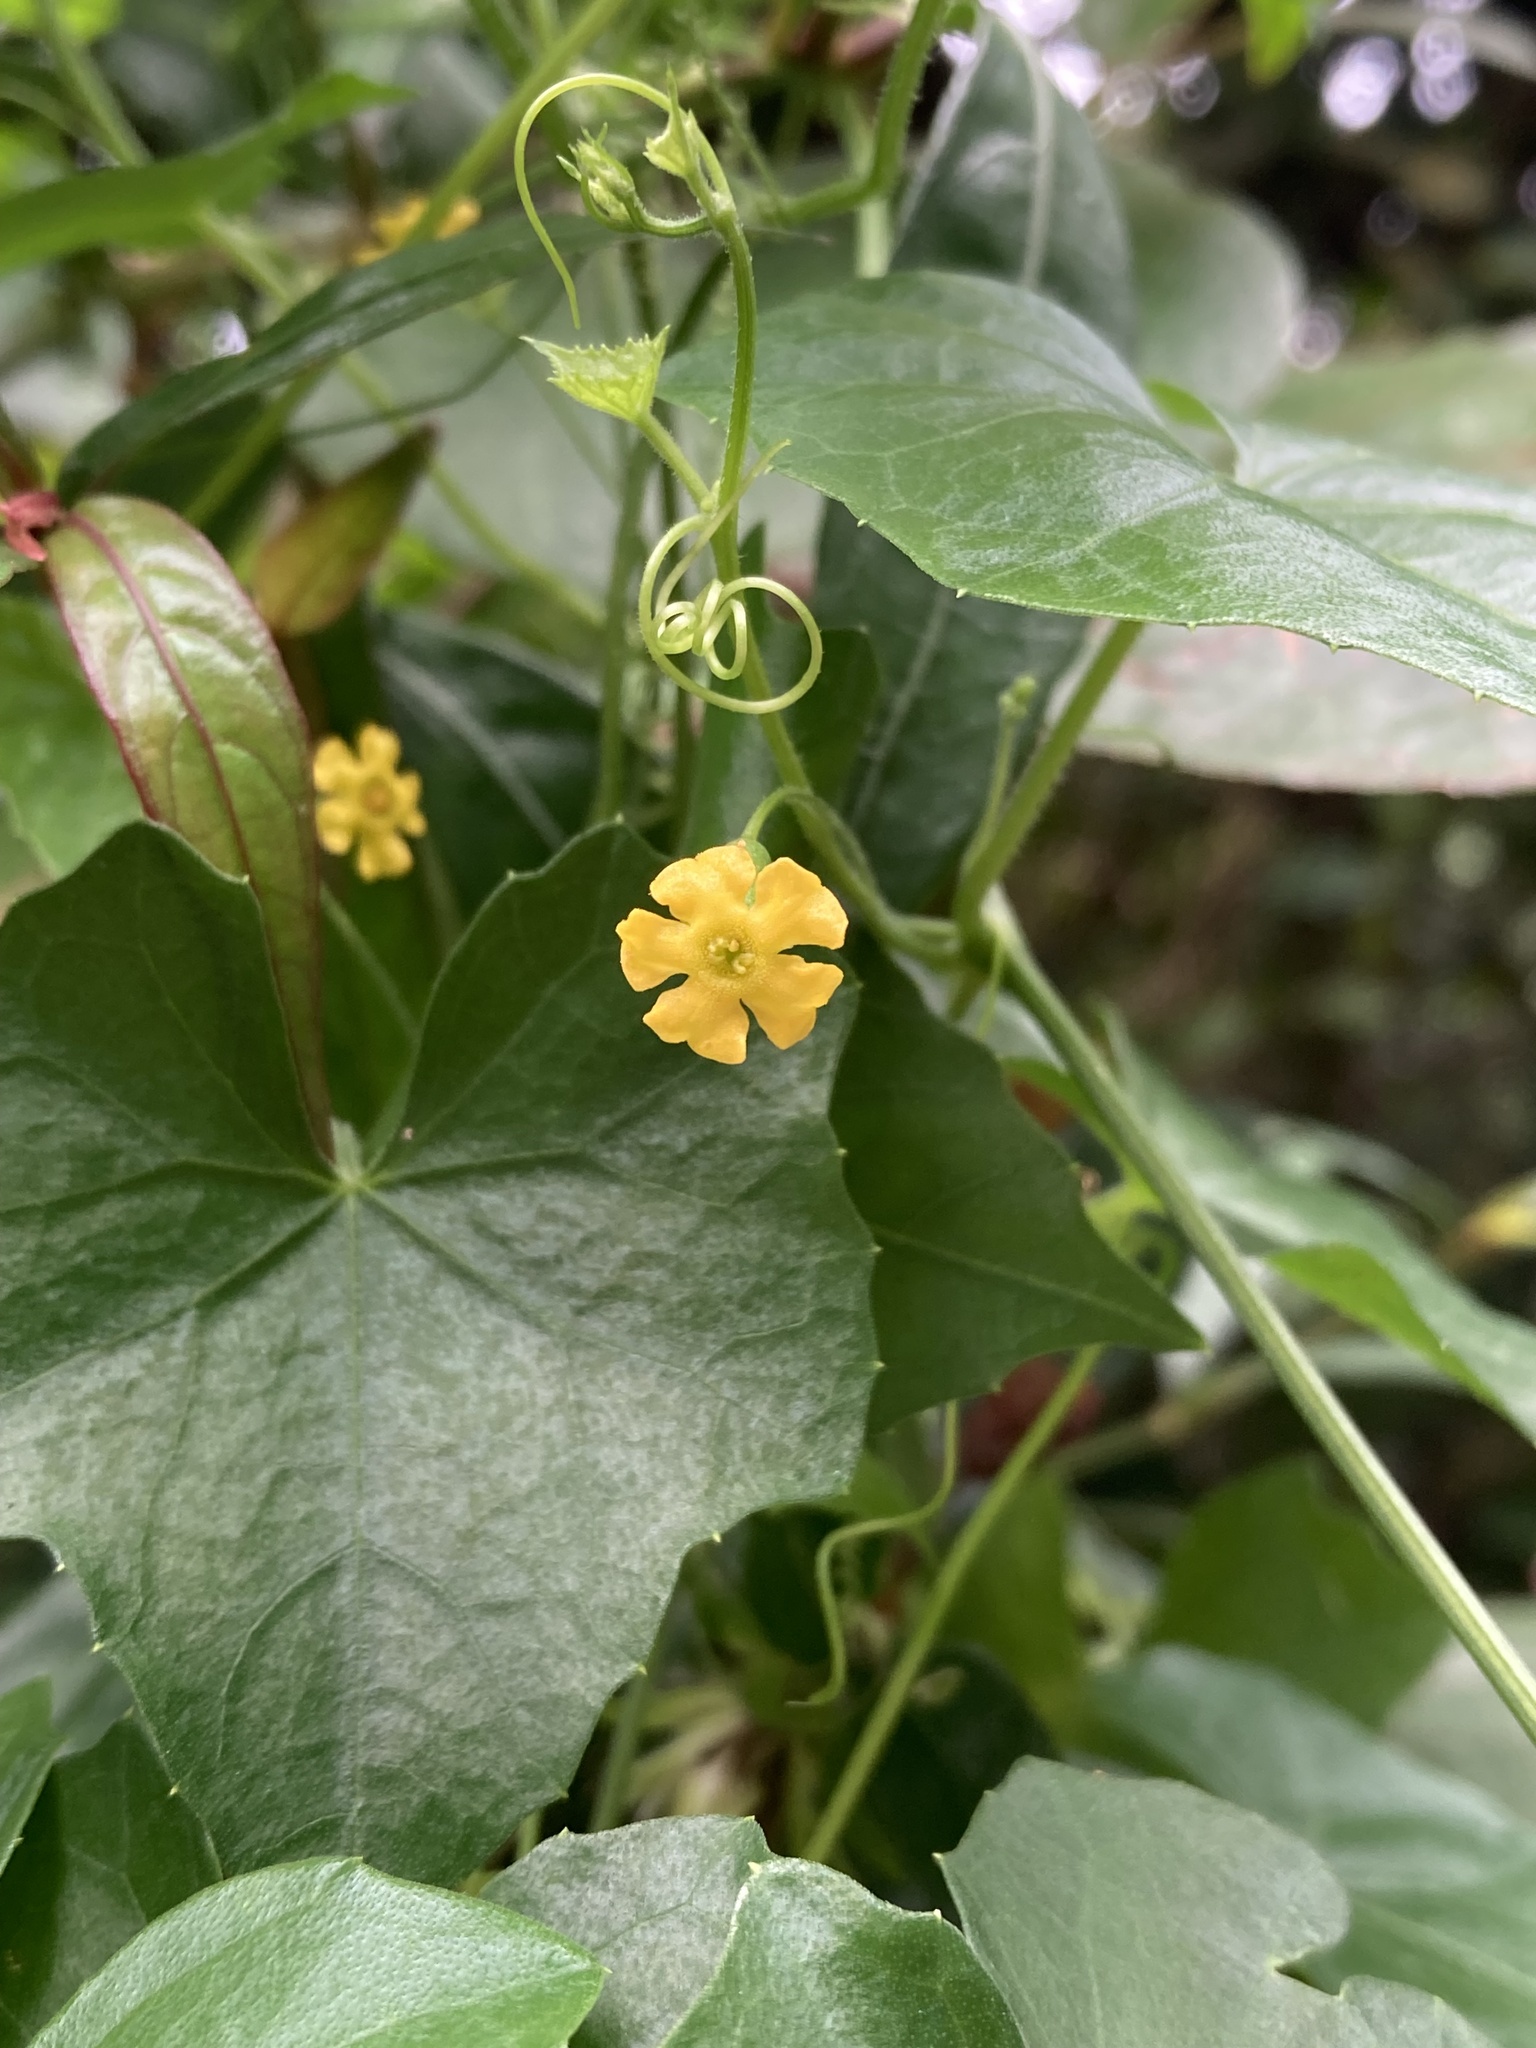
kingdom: Plantae
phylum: Tracheophyta
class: Magnoliopsida
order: Cucurbitales
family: Cucurbitaceae
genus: Melothria
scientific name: Melothria pendula
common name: Creeping-cucumber
